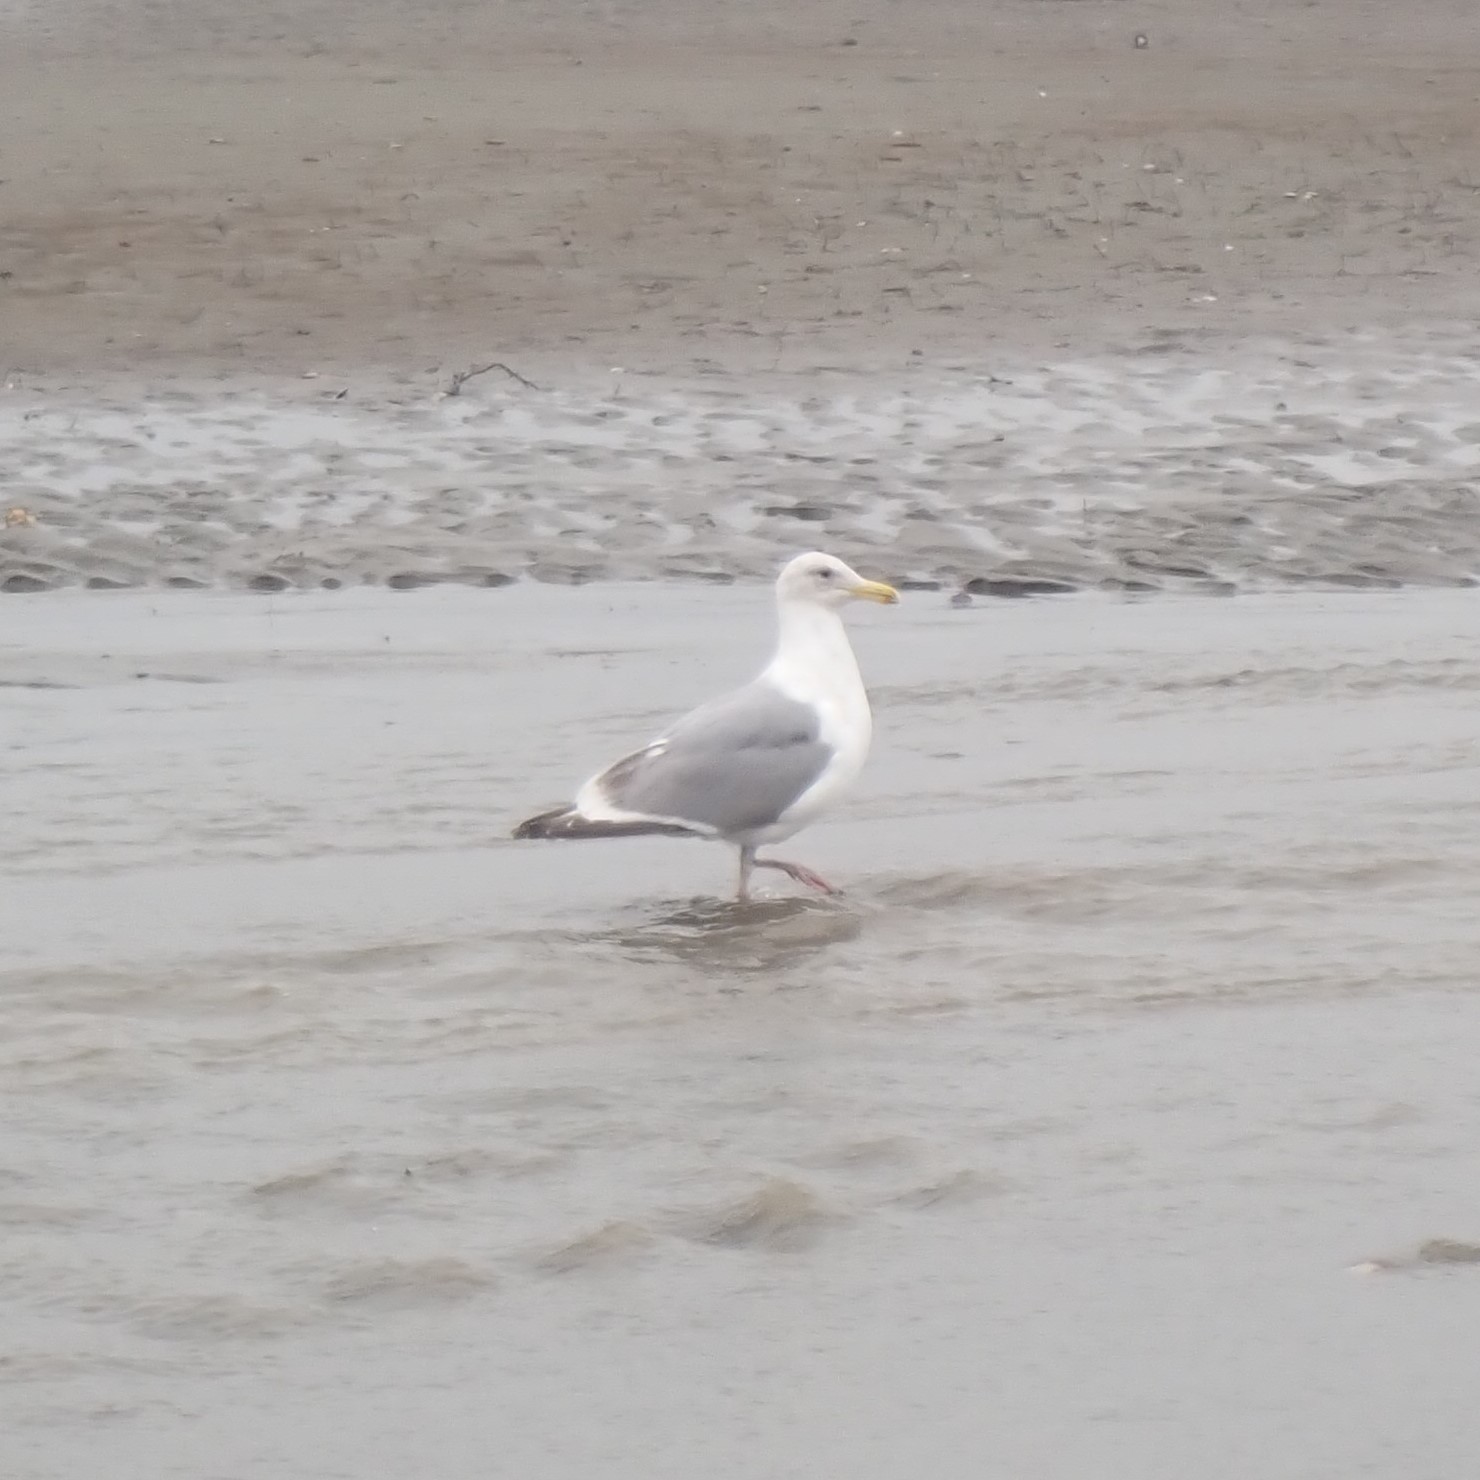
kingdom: Animalia
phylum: Chordata
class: Aves
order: Charadriiformes
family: Laridae
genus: Larus
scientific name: Larus
